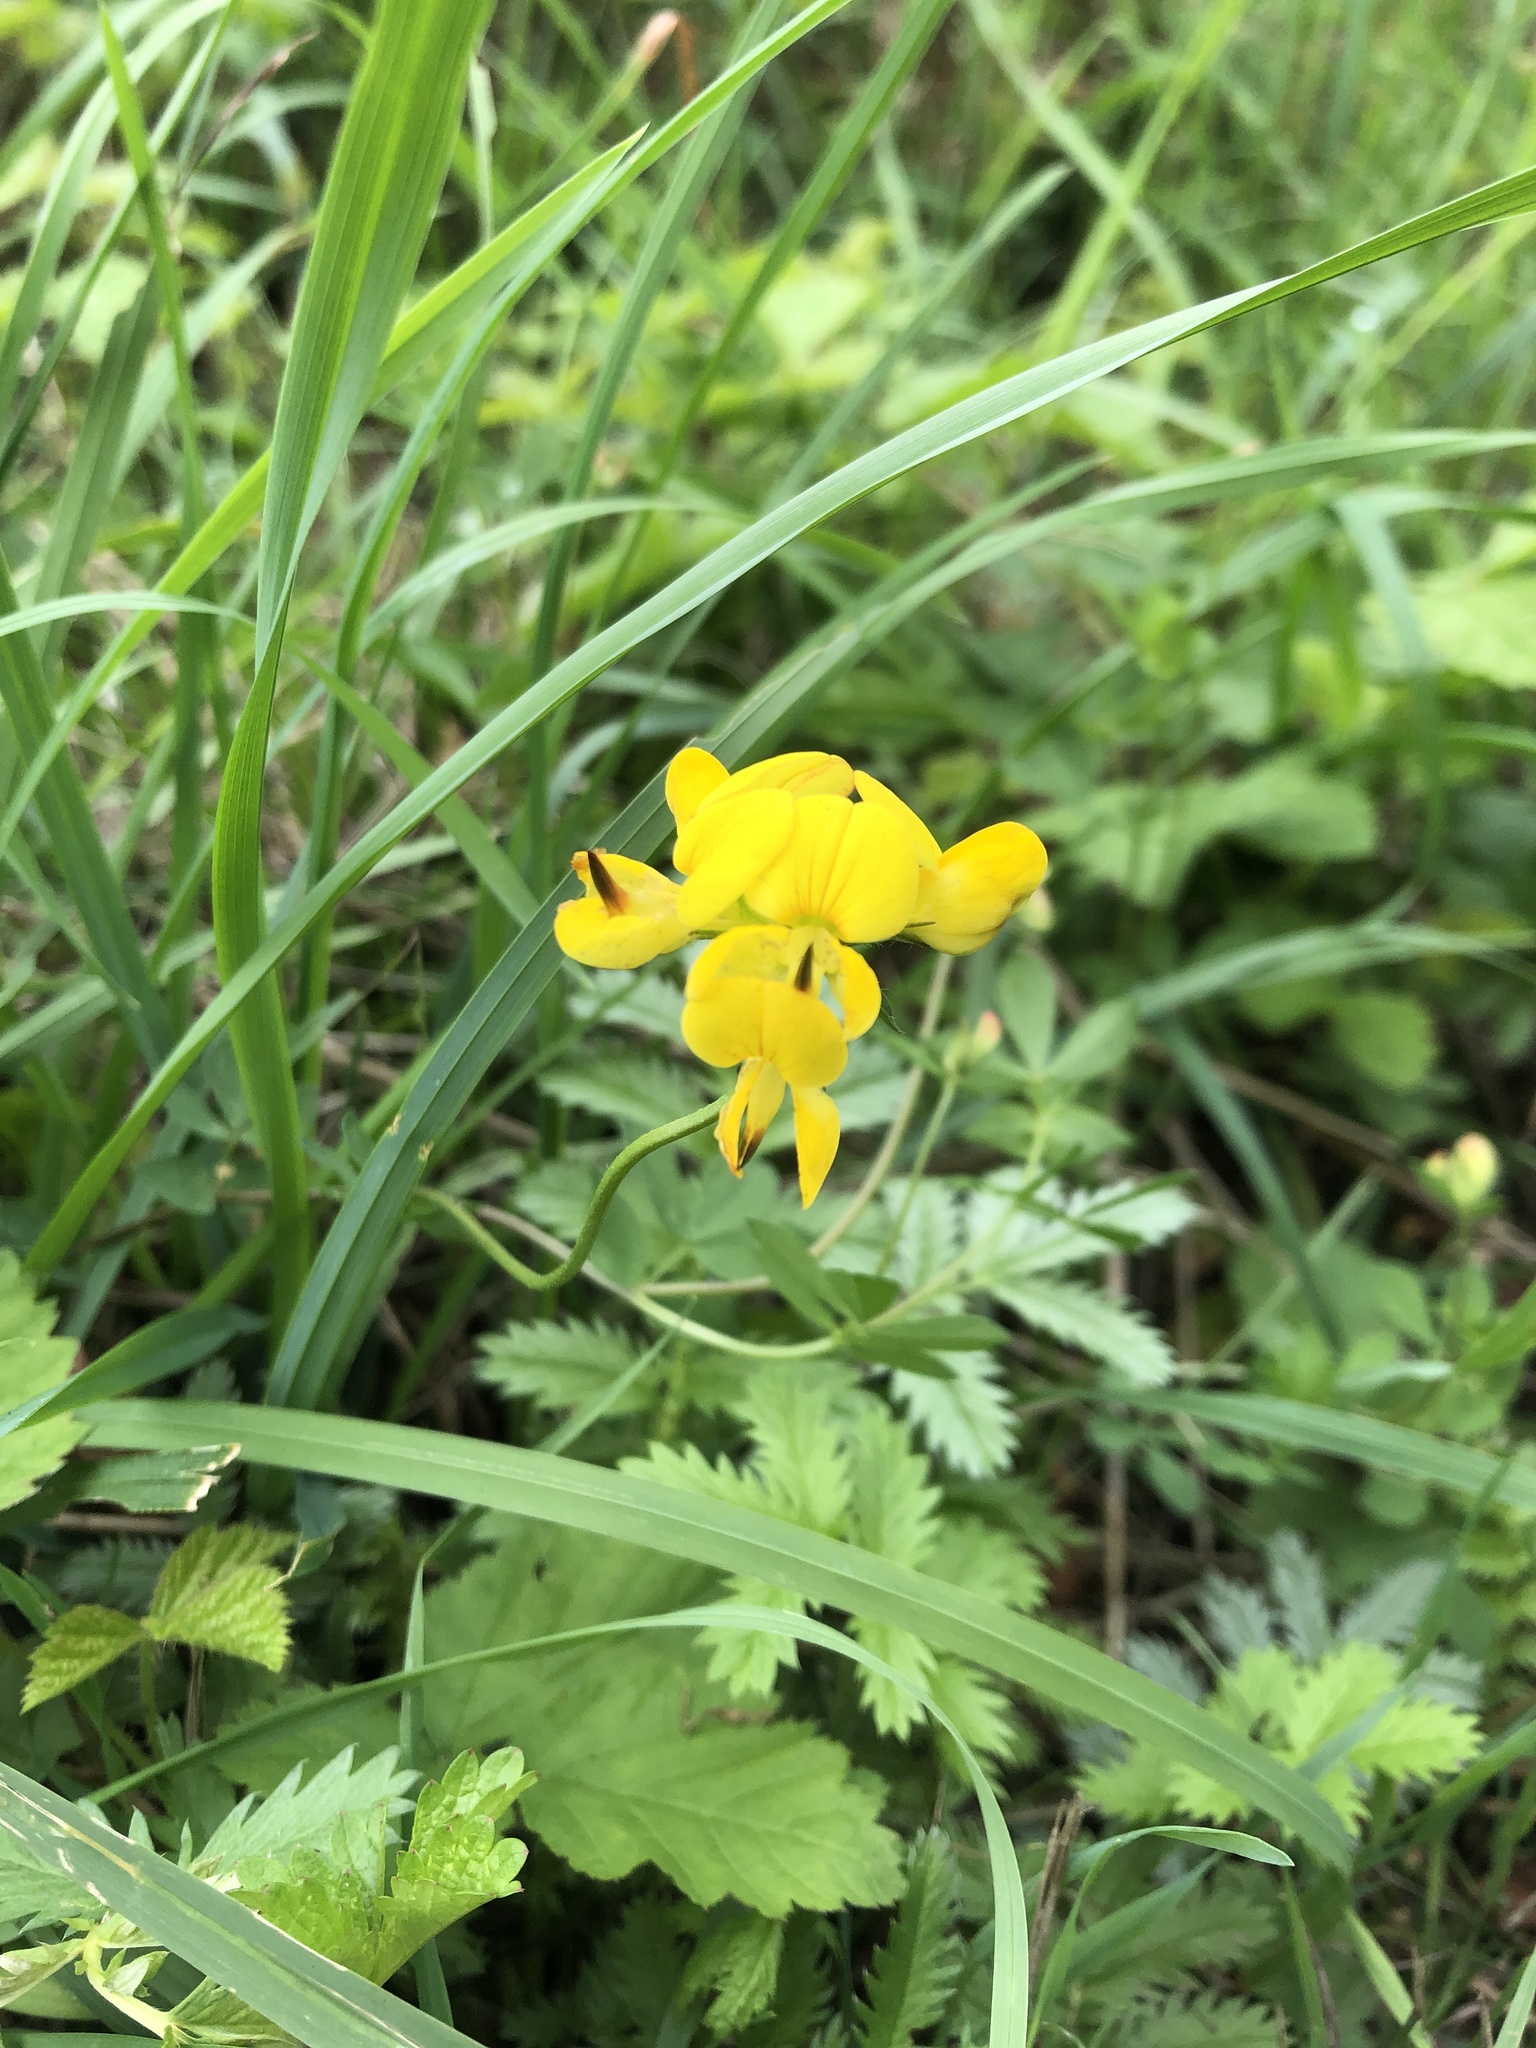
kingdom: Plantae
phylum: Tracheophyta
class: Magnoliopsida
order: Fabales
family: Fabaceae
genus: Lotus
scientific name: Lotus corniculatus
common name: Common bird's-foot-trefoil
